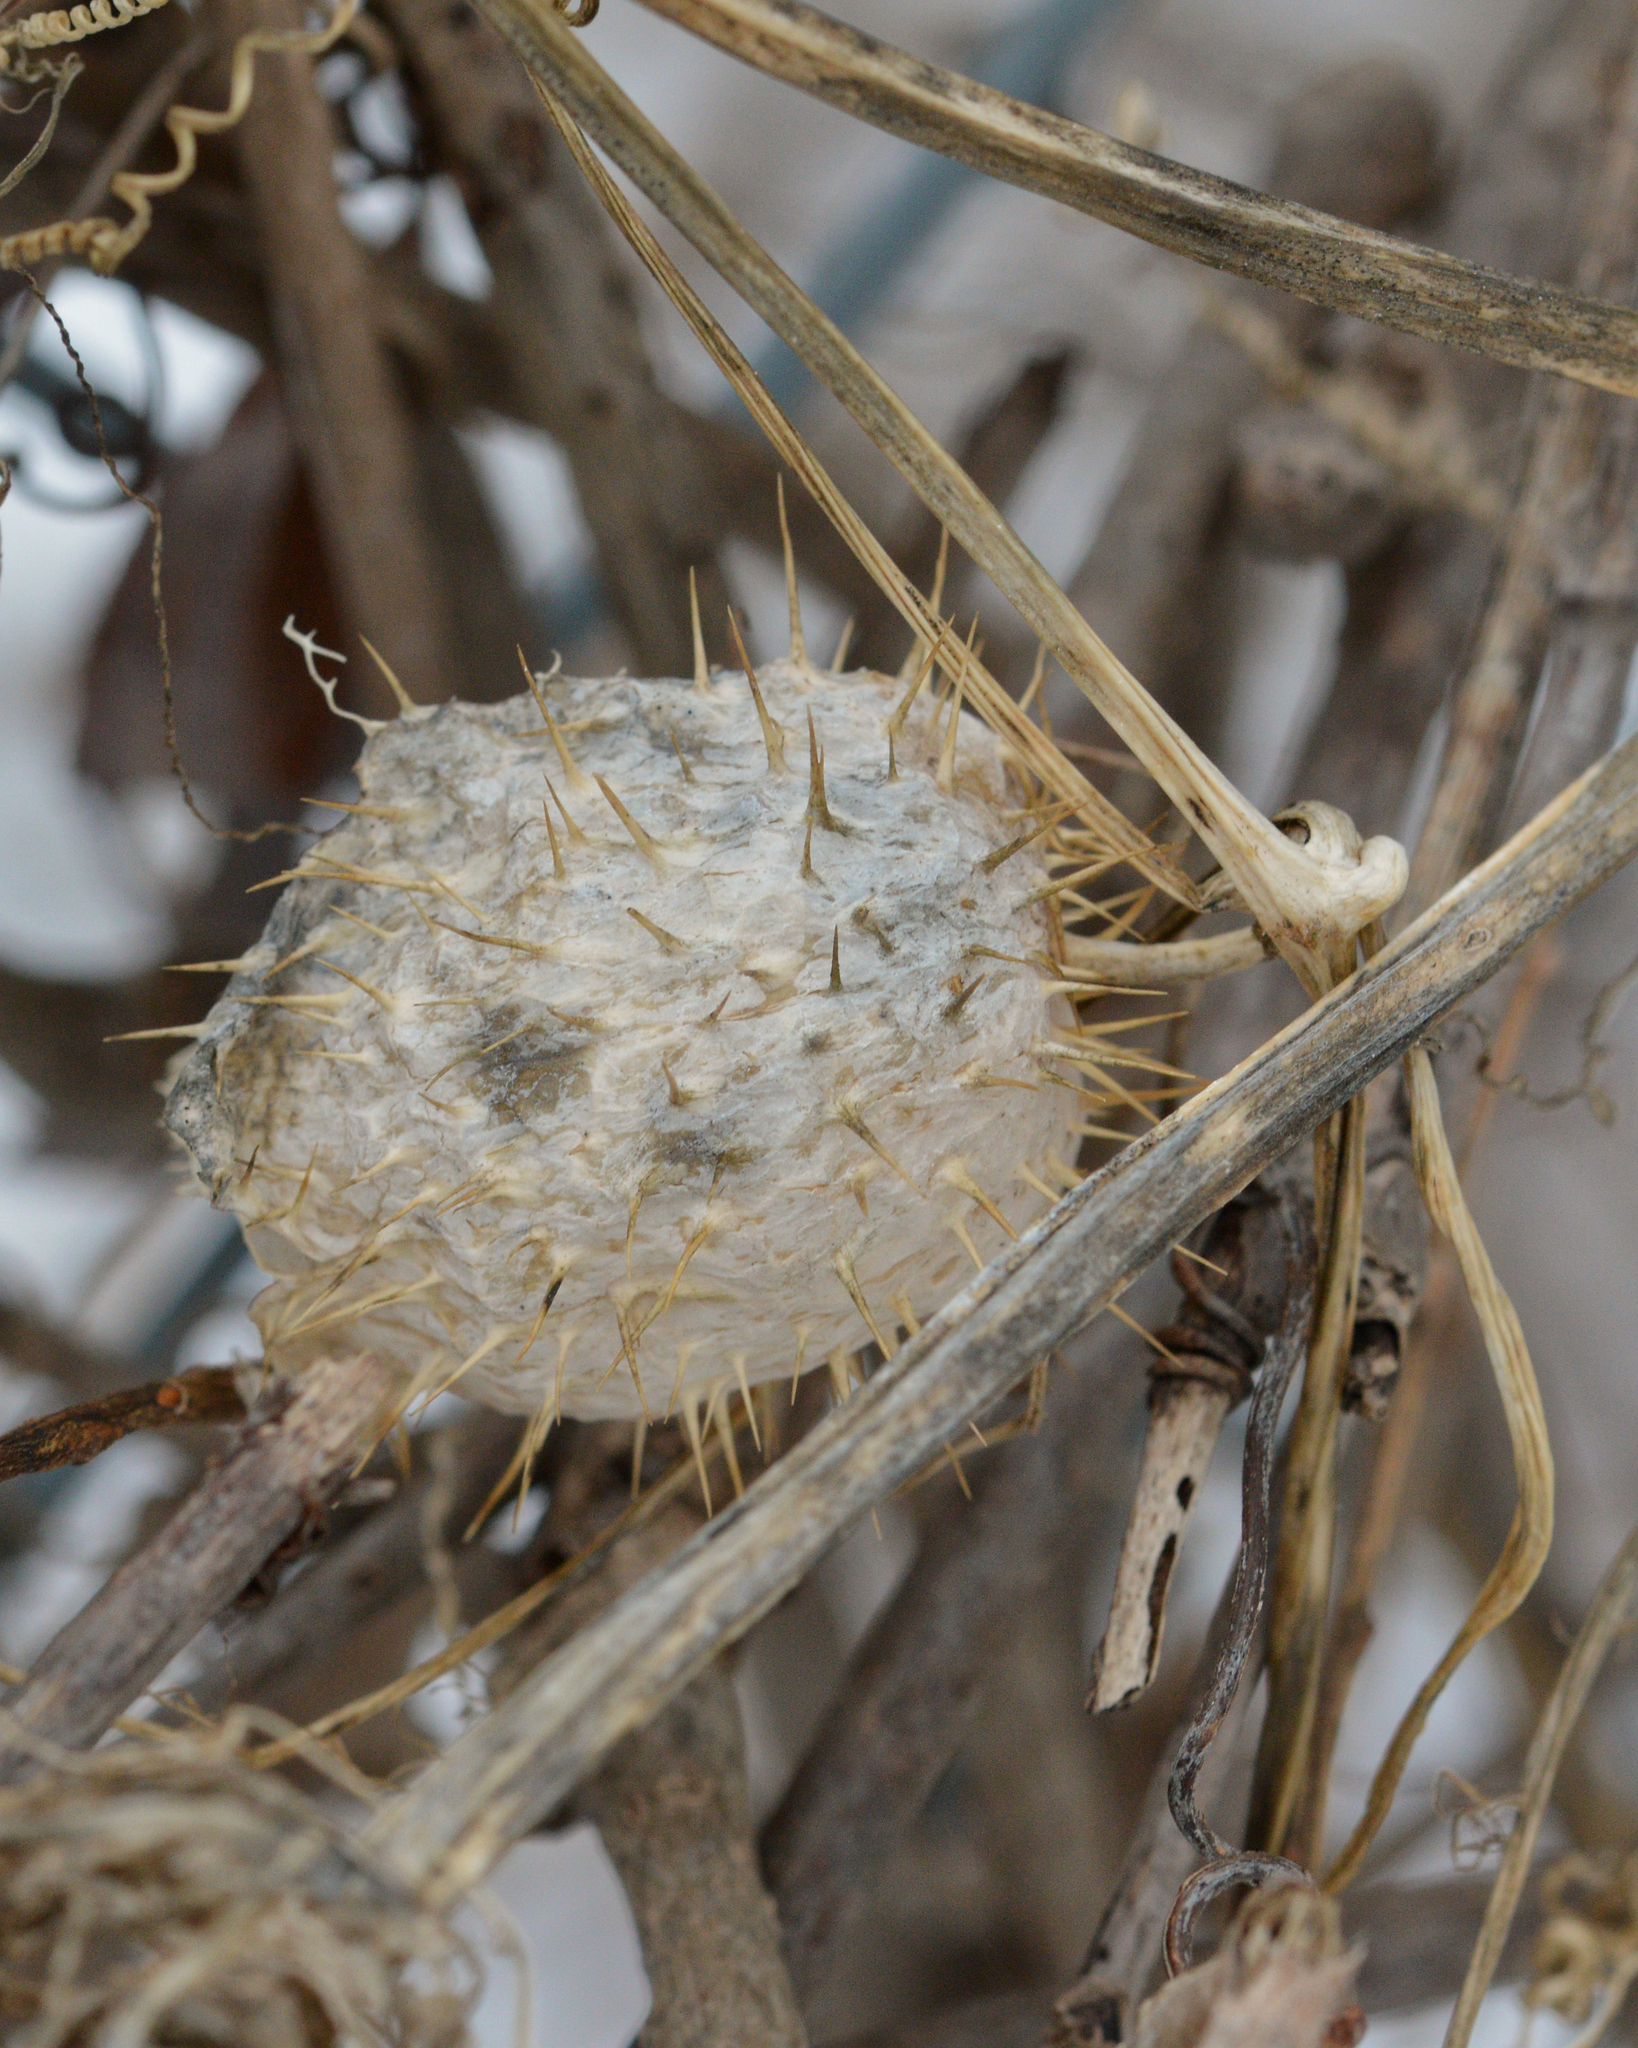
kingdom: Plantae
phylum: Tracheophyta
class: Magnoliopsida
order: Cucurbitales
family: Cucurbitaceae
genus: Echinocystis
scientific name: Echinocystis lobata
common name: Wild cucumber
